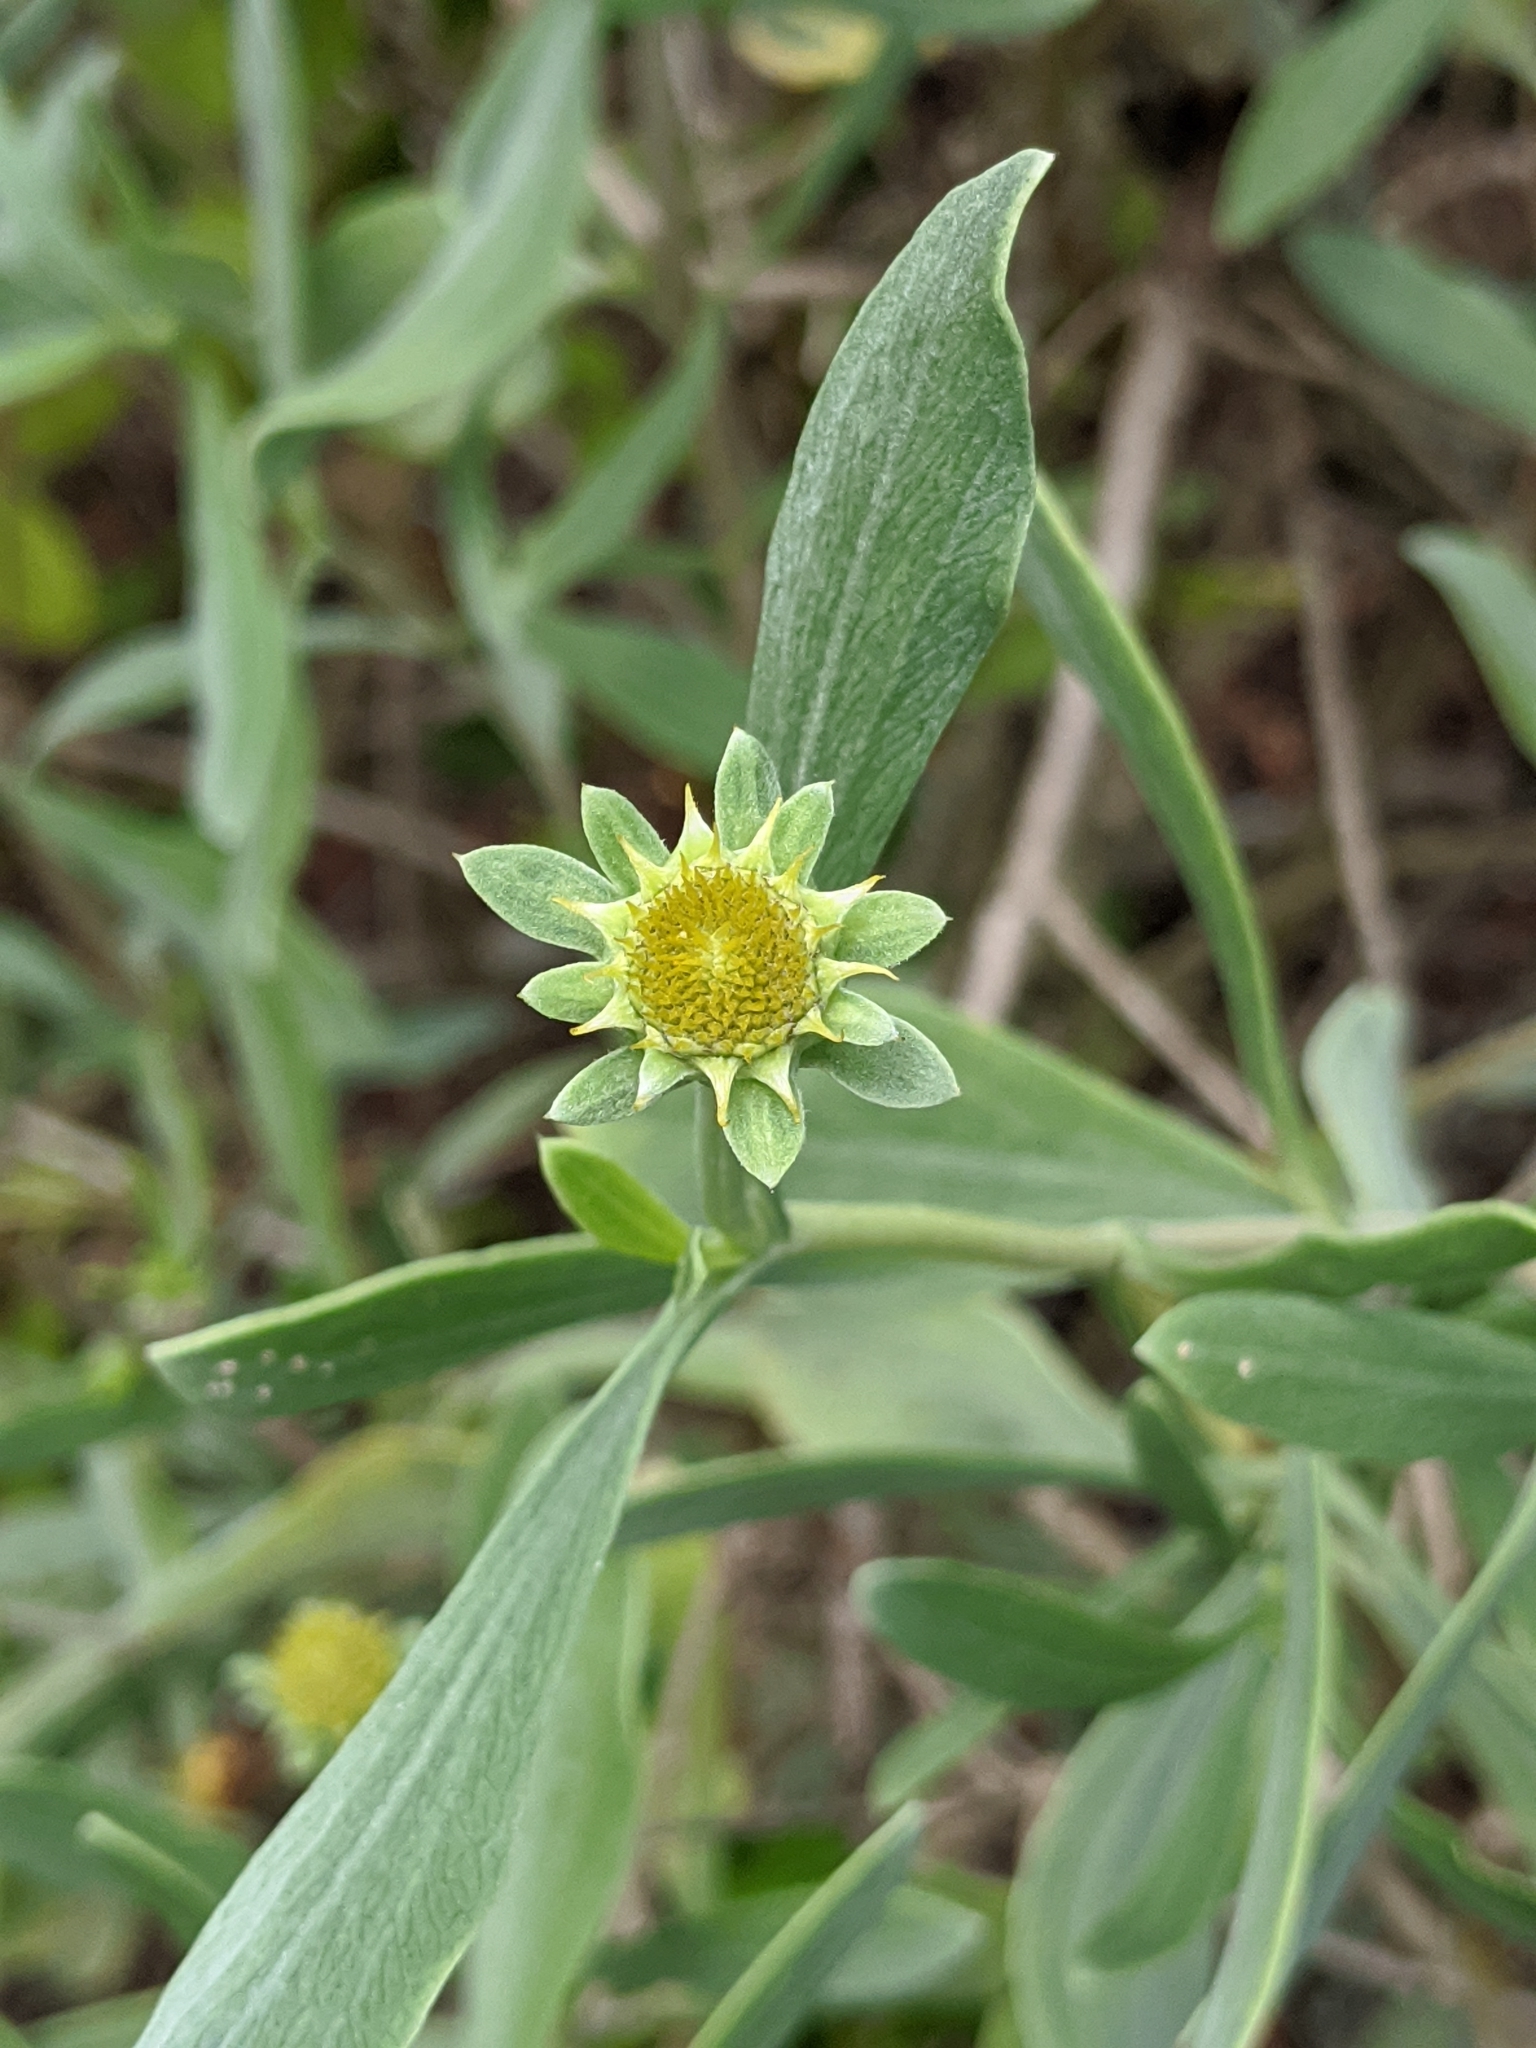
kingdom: Plantae
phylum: Tracheophyta
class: Magnoliopsida
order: Asterales
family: Asteraceae
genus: Borrichia
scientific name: Borrichia frutescens
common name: Sea oxeye
